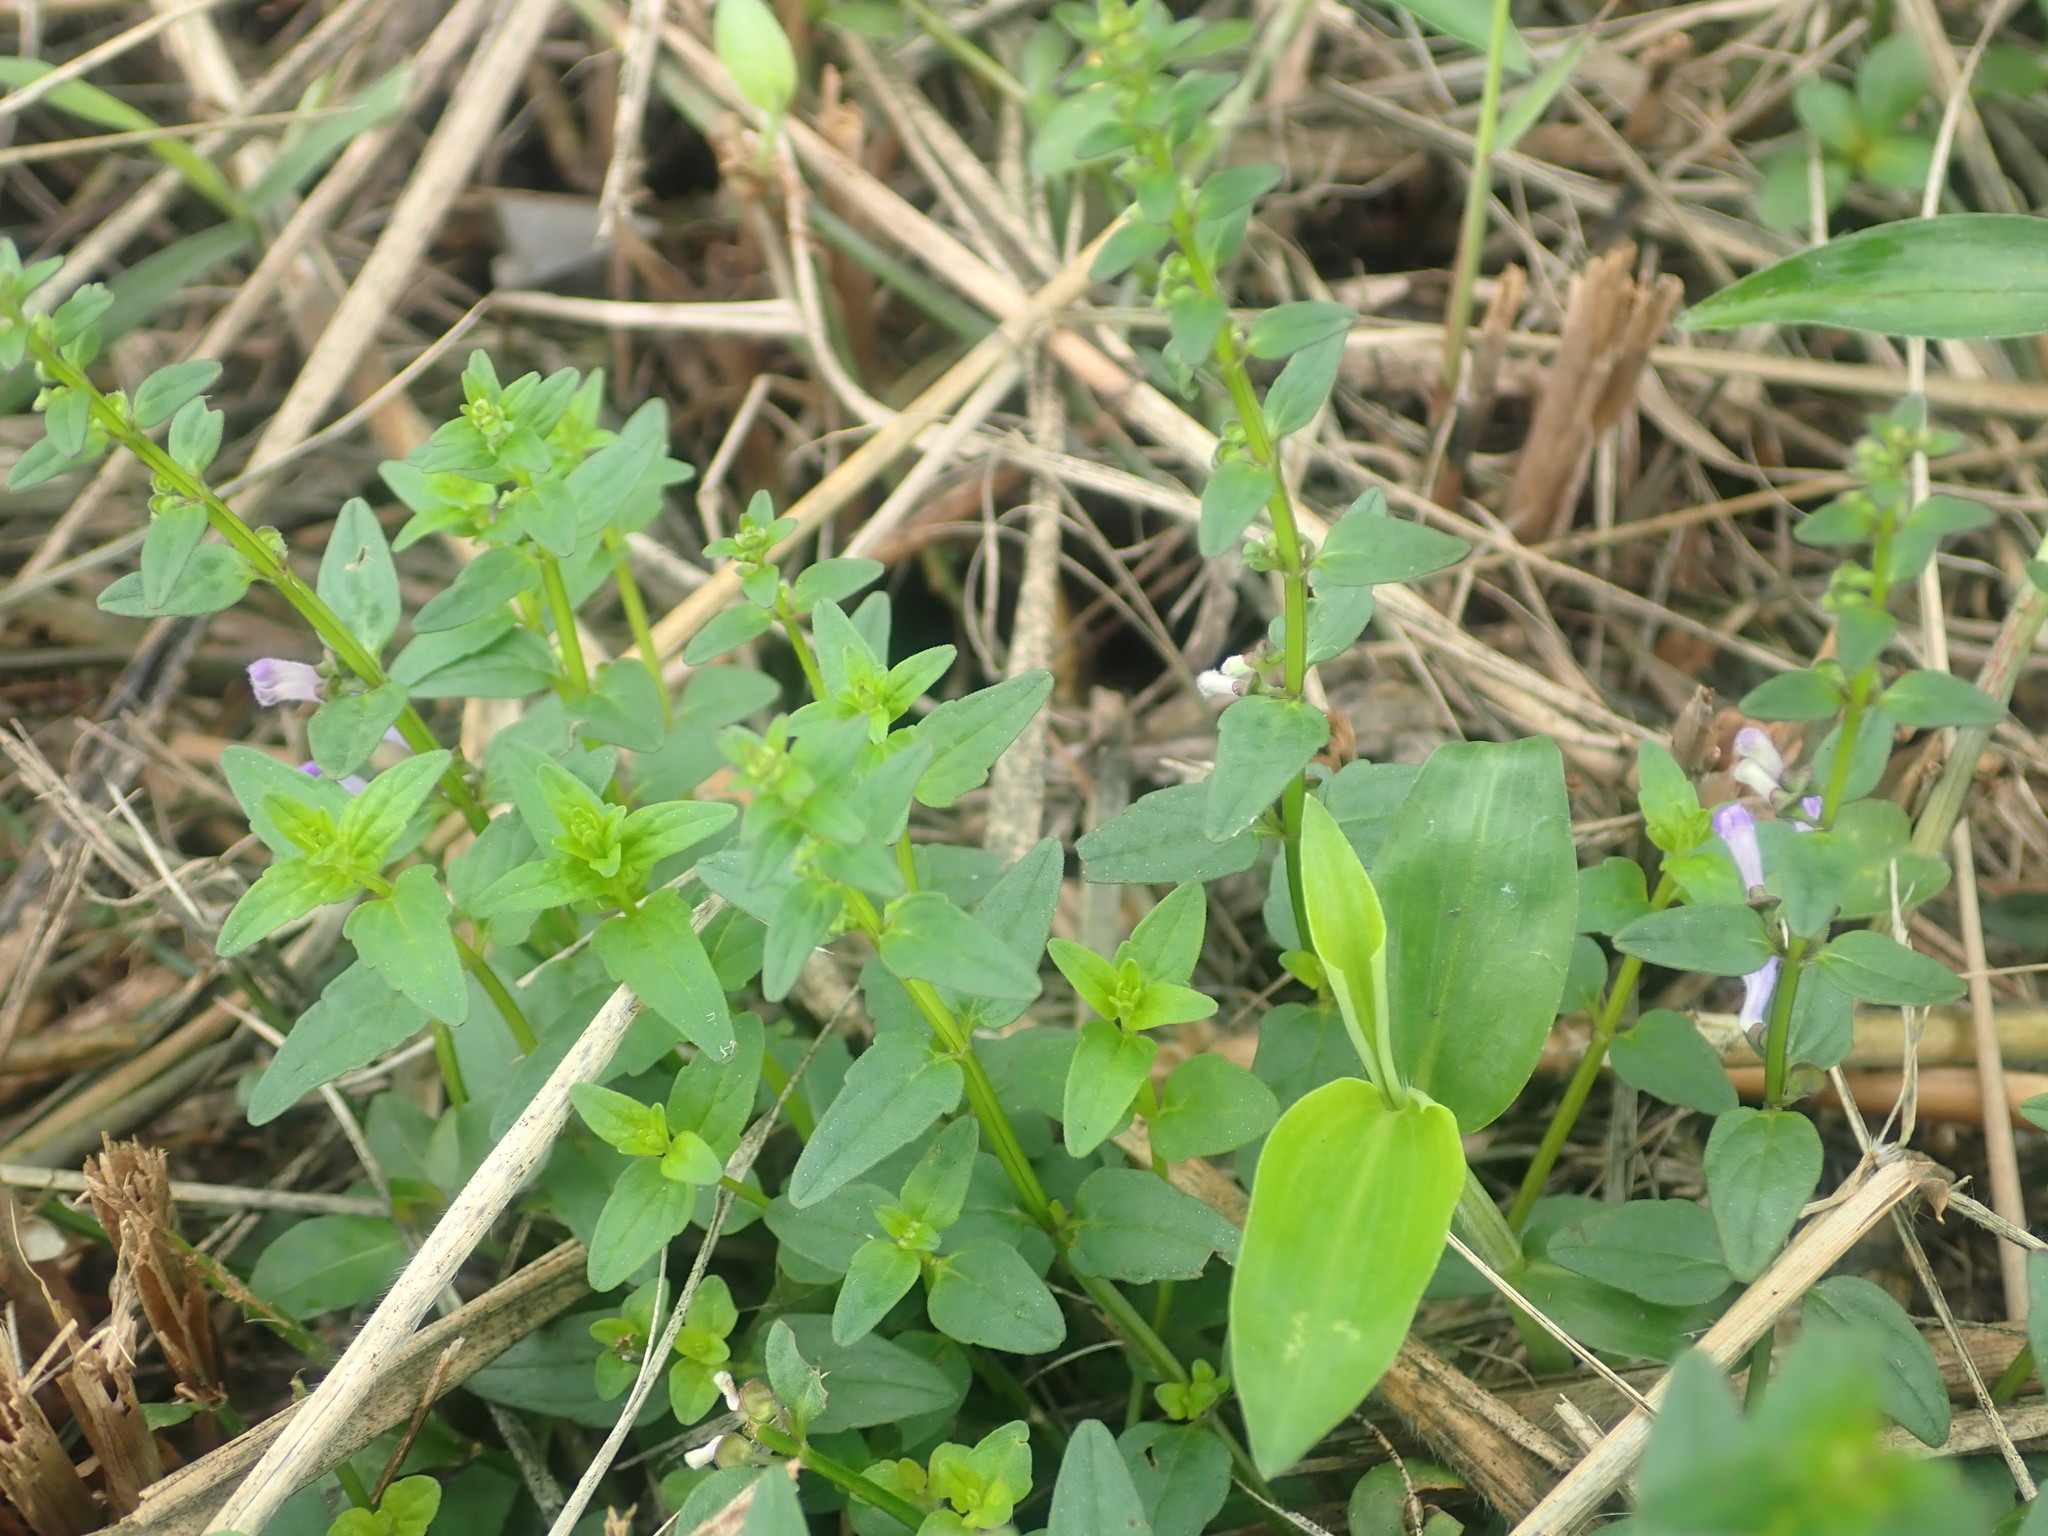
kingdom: Plantae
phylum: Tracheophyta
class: Magnoliopsida
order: Lamiales
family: Lamiaceae
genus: Scutellaria
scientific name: Scutellaria barbata
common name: Barbed skullcap
